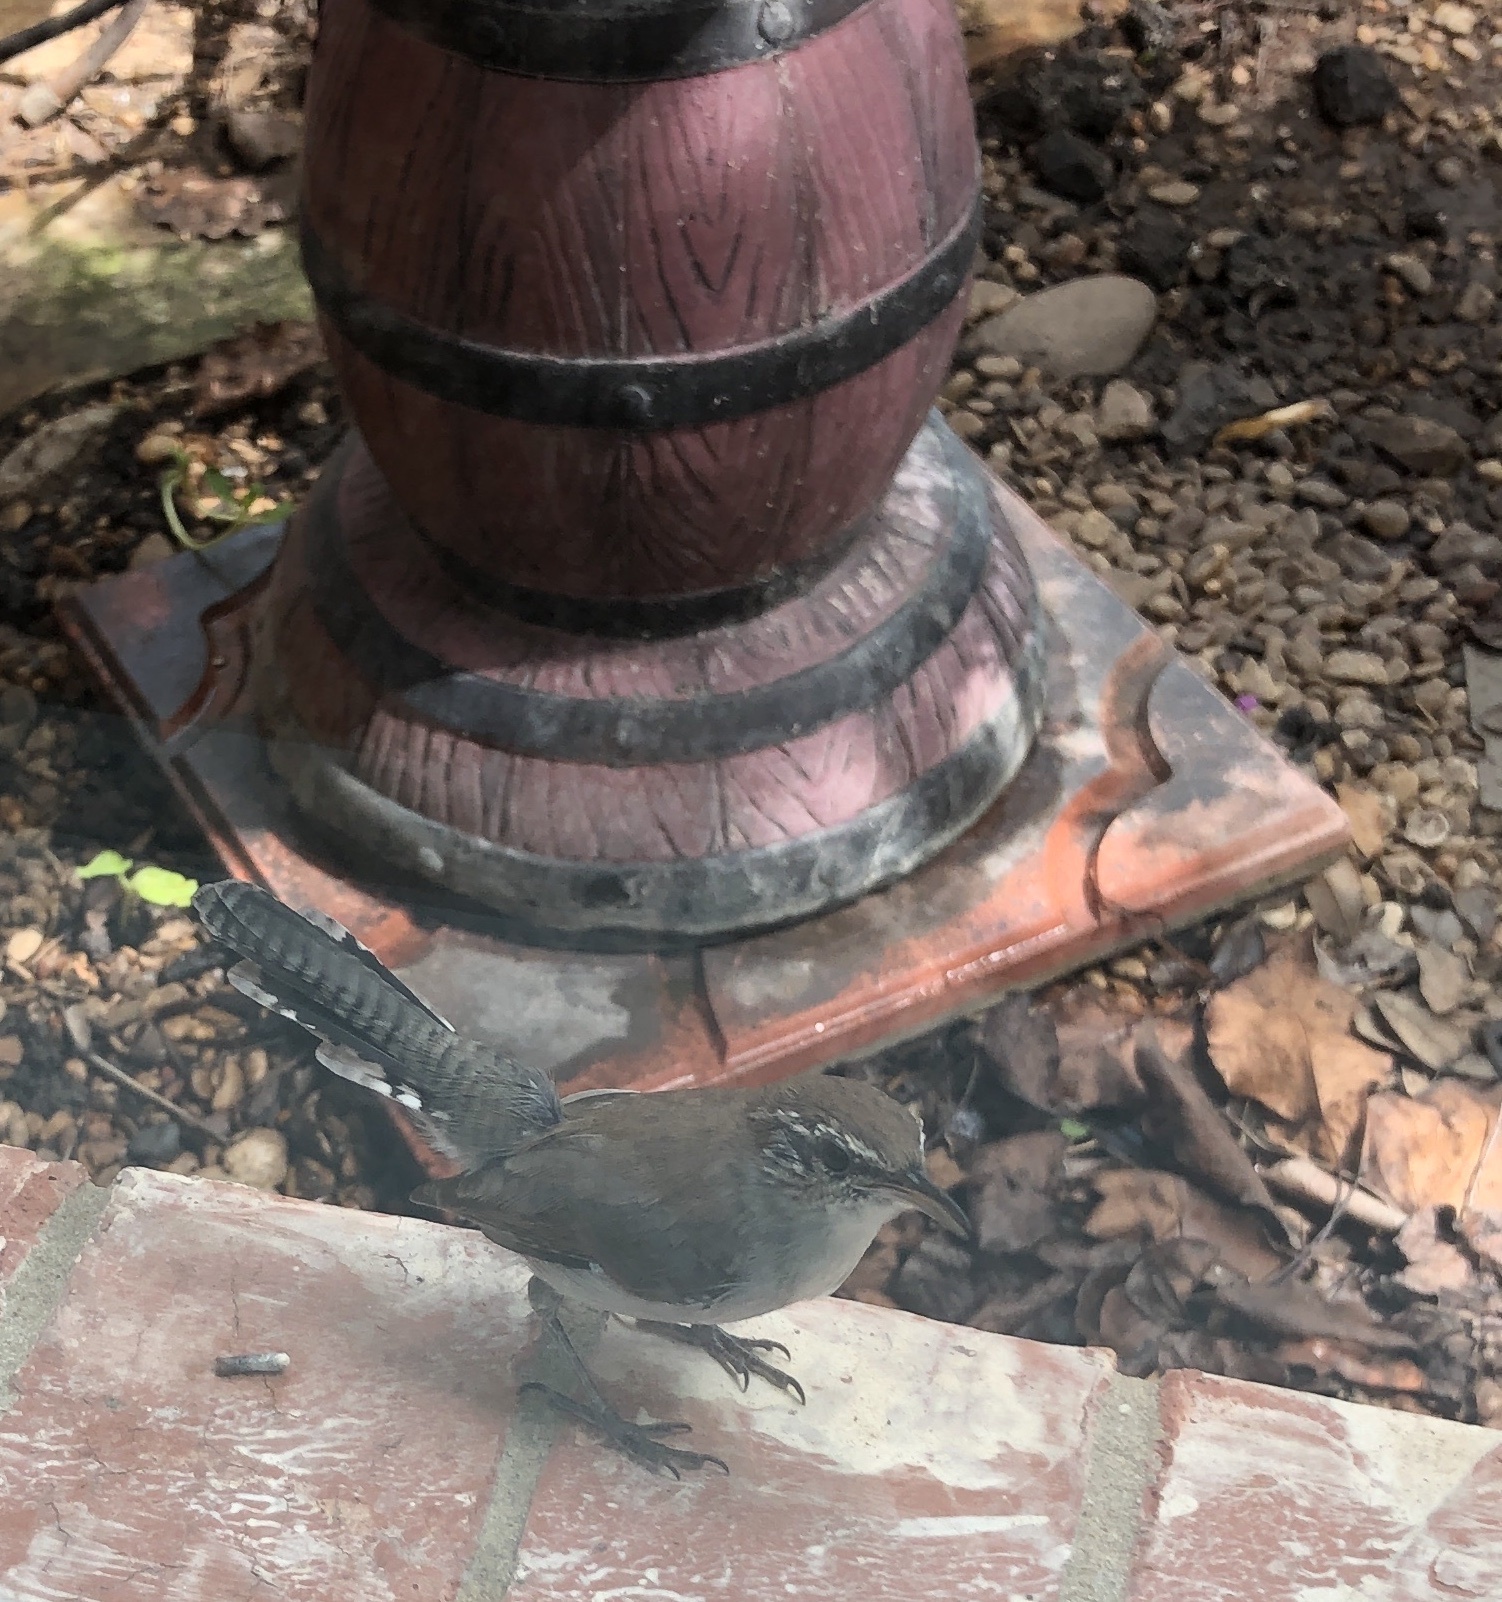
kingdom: Animalia
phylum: Chordata
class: Aves
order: Passeriformes
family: Troglodytidae
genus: Thryomanes
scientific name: Thryomanes bewickii
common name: Bewick's wren
